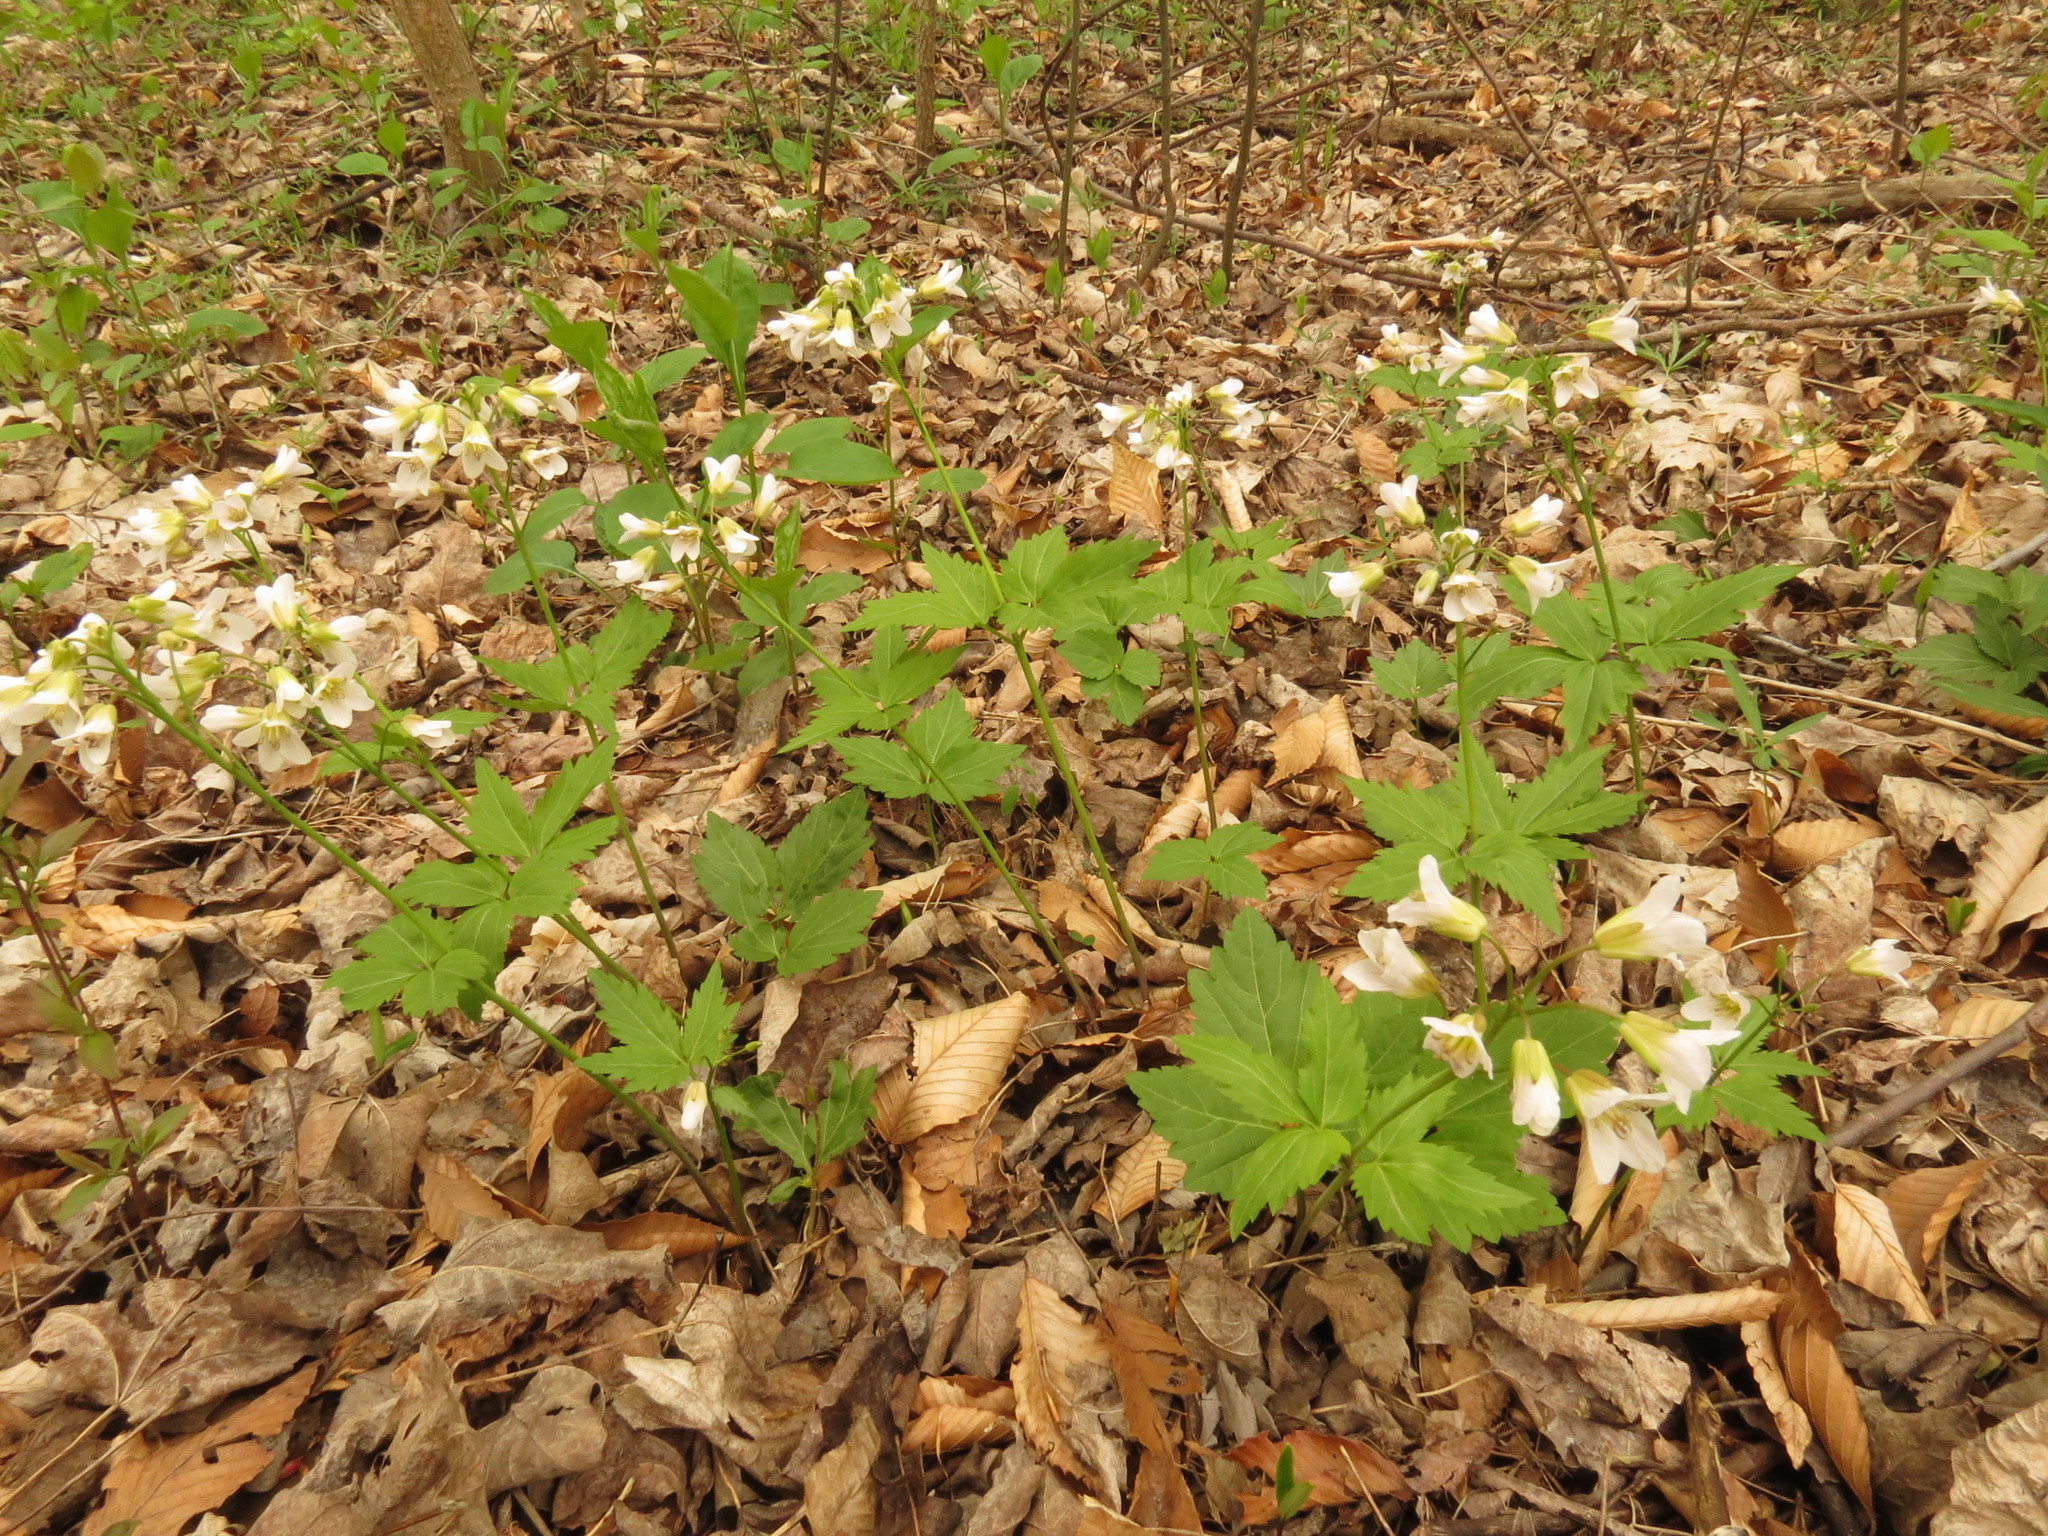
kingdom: Plantae
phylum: Tracheophyta
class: Magnoliopsida
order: Brassicales
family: Brassicaceae
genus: Cardamine
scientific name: Cardamine diphylla
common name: Broad-leaved toothwort
